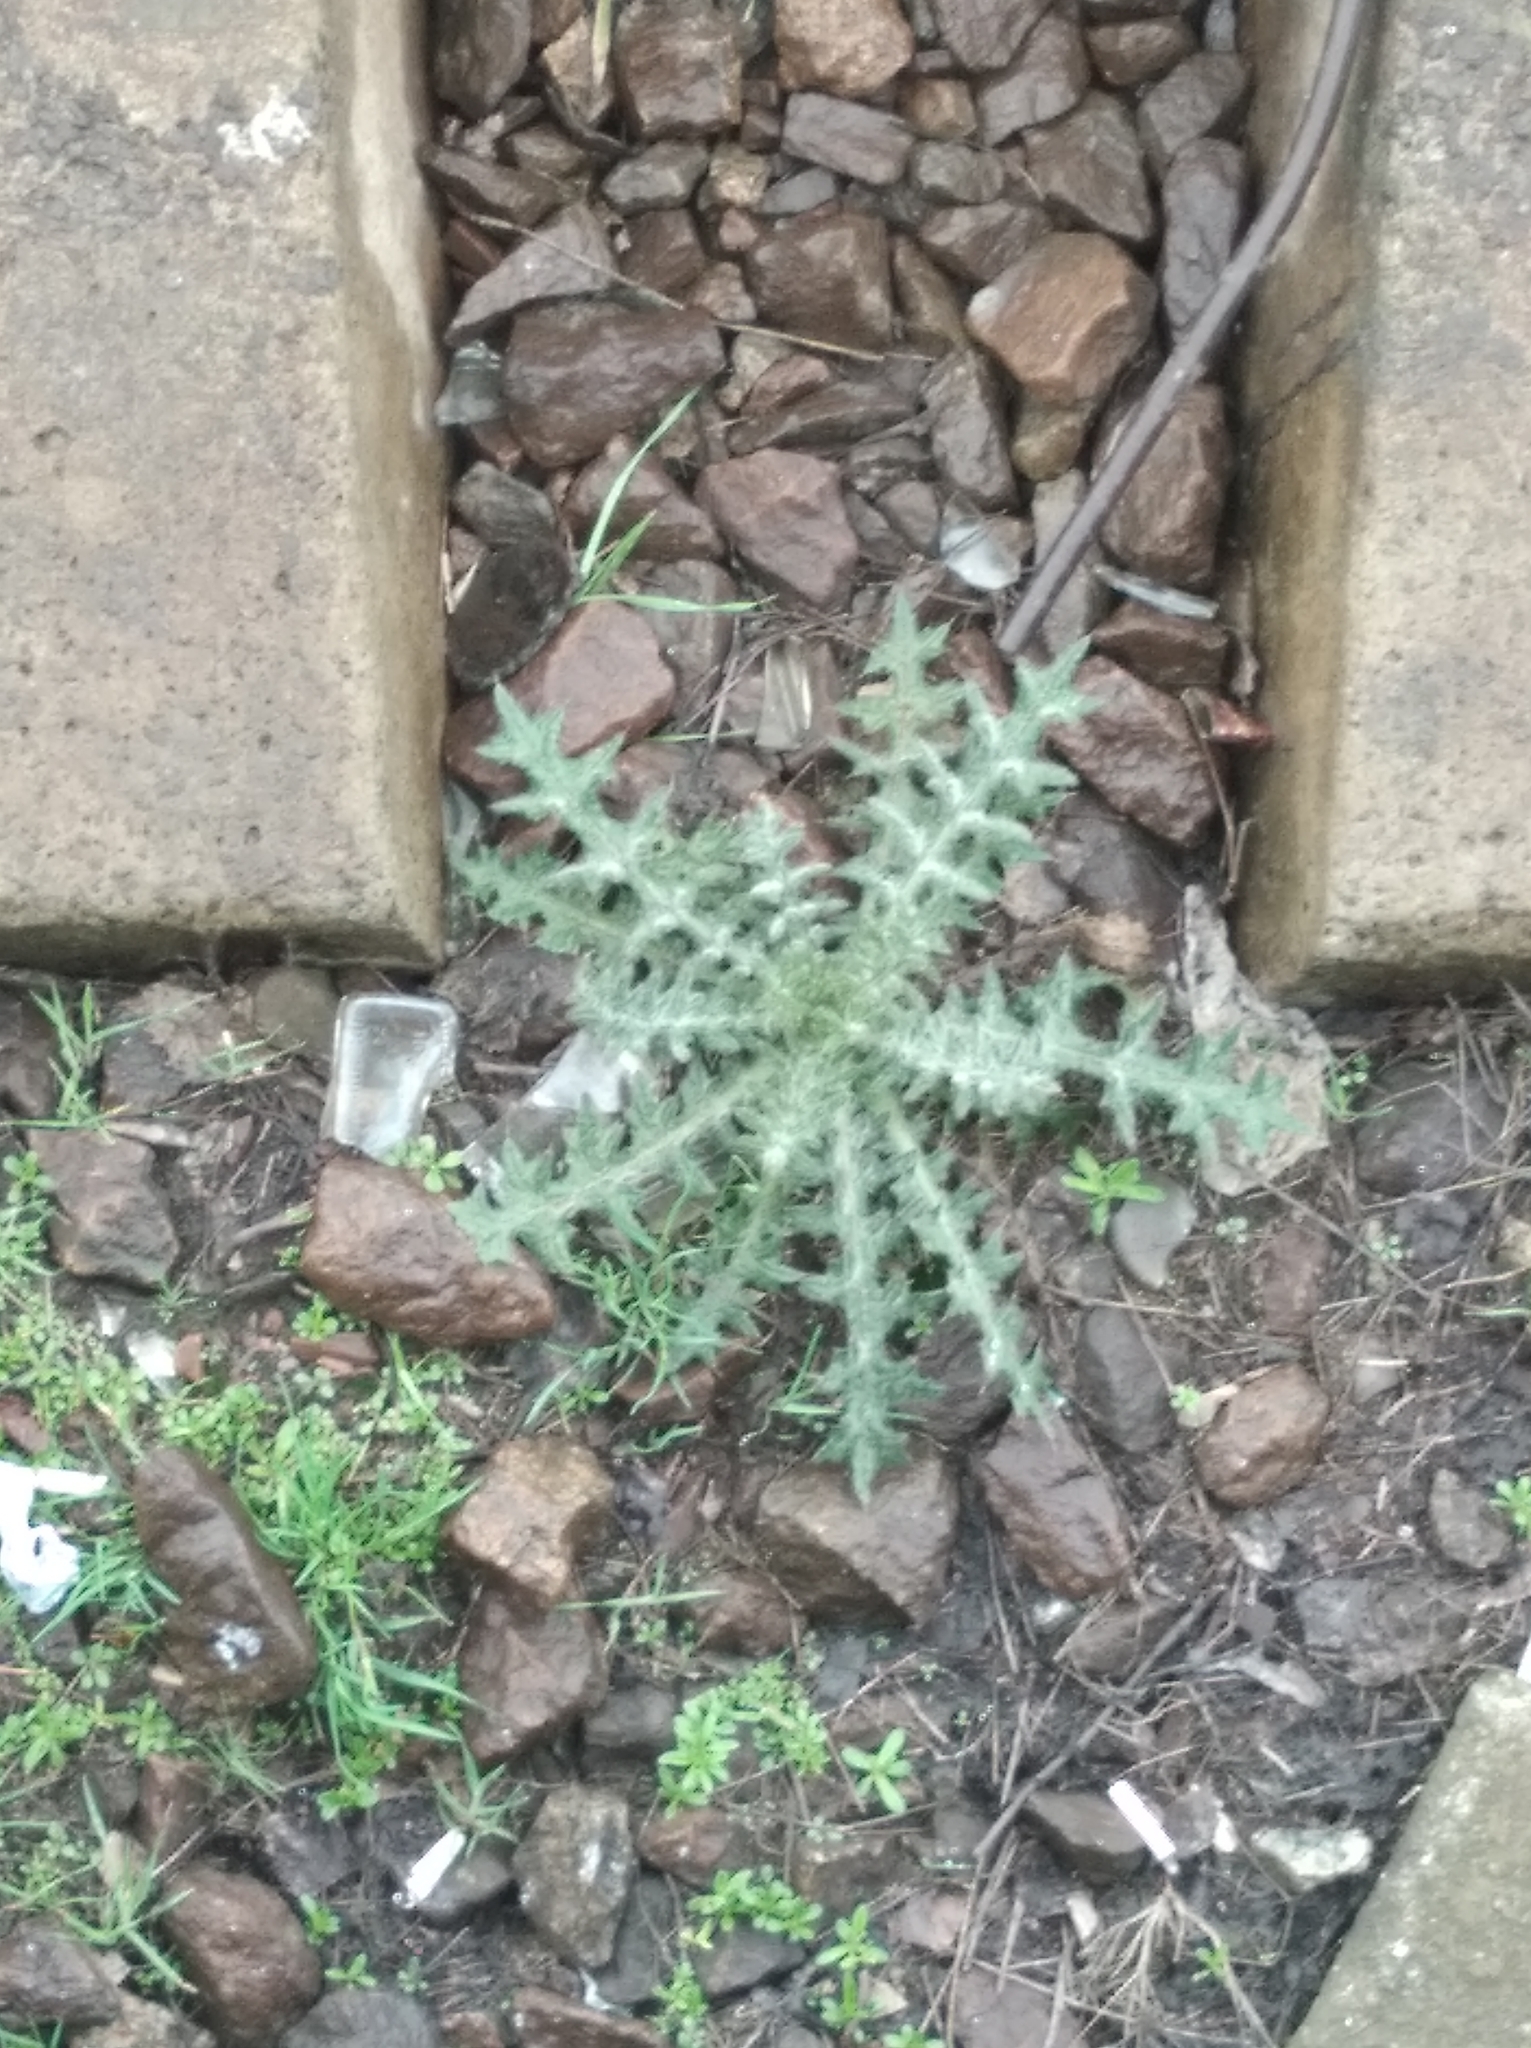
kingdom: Plantae
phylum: Tracheophyta
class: Magnoliopsida
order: Asterales
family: Asteraceae
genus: Cirsium
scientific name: Cirsium vulgare
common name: Bull thistle
